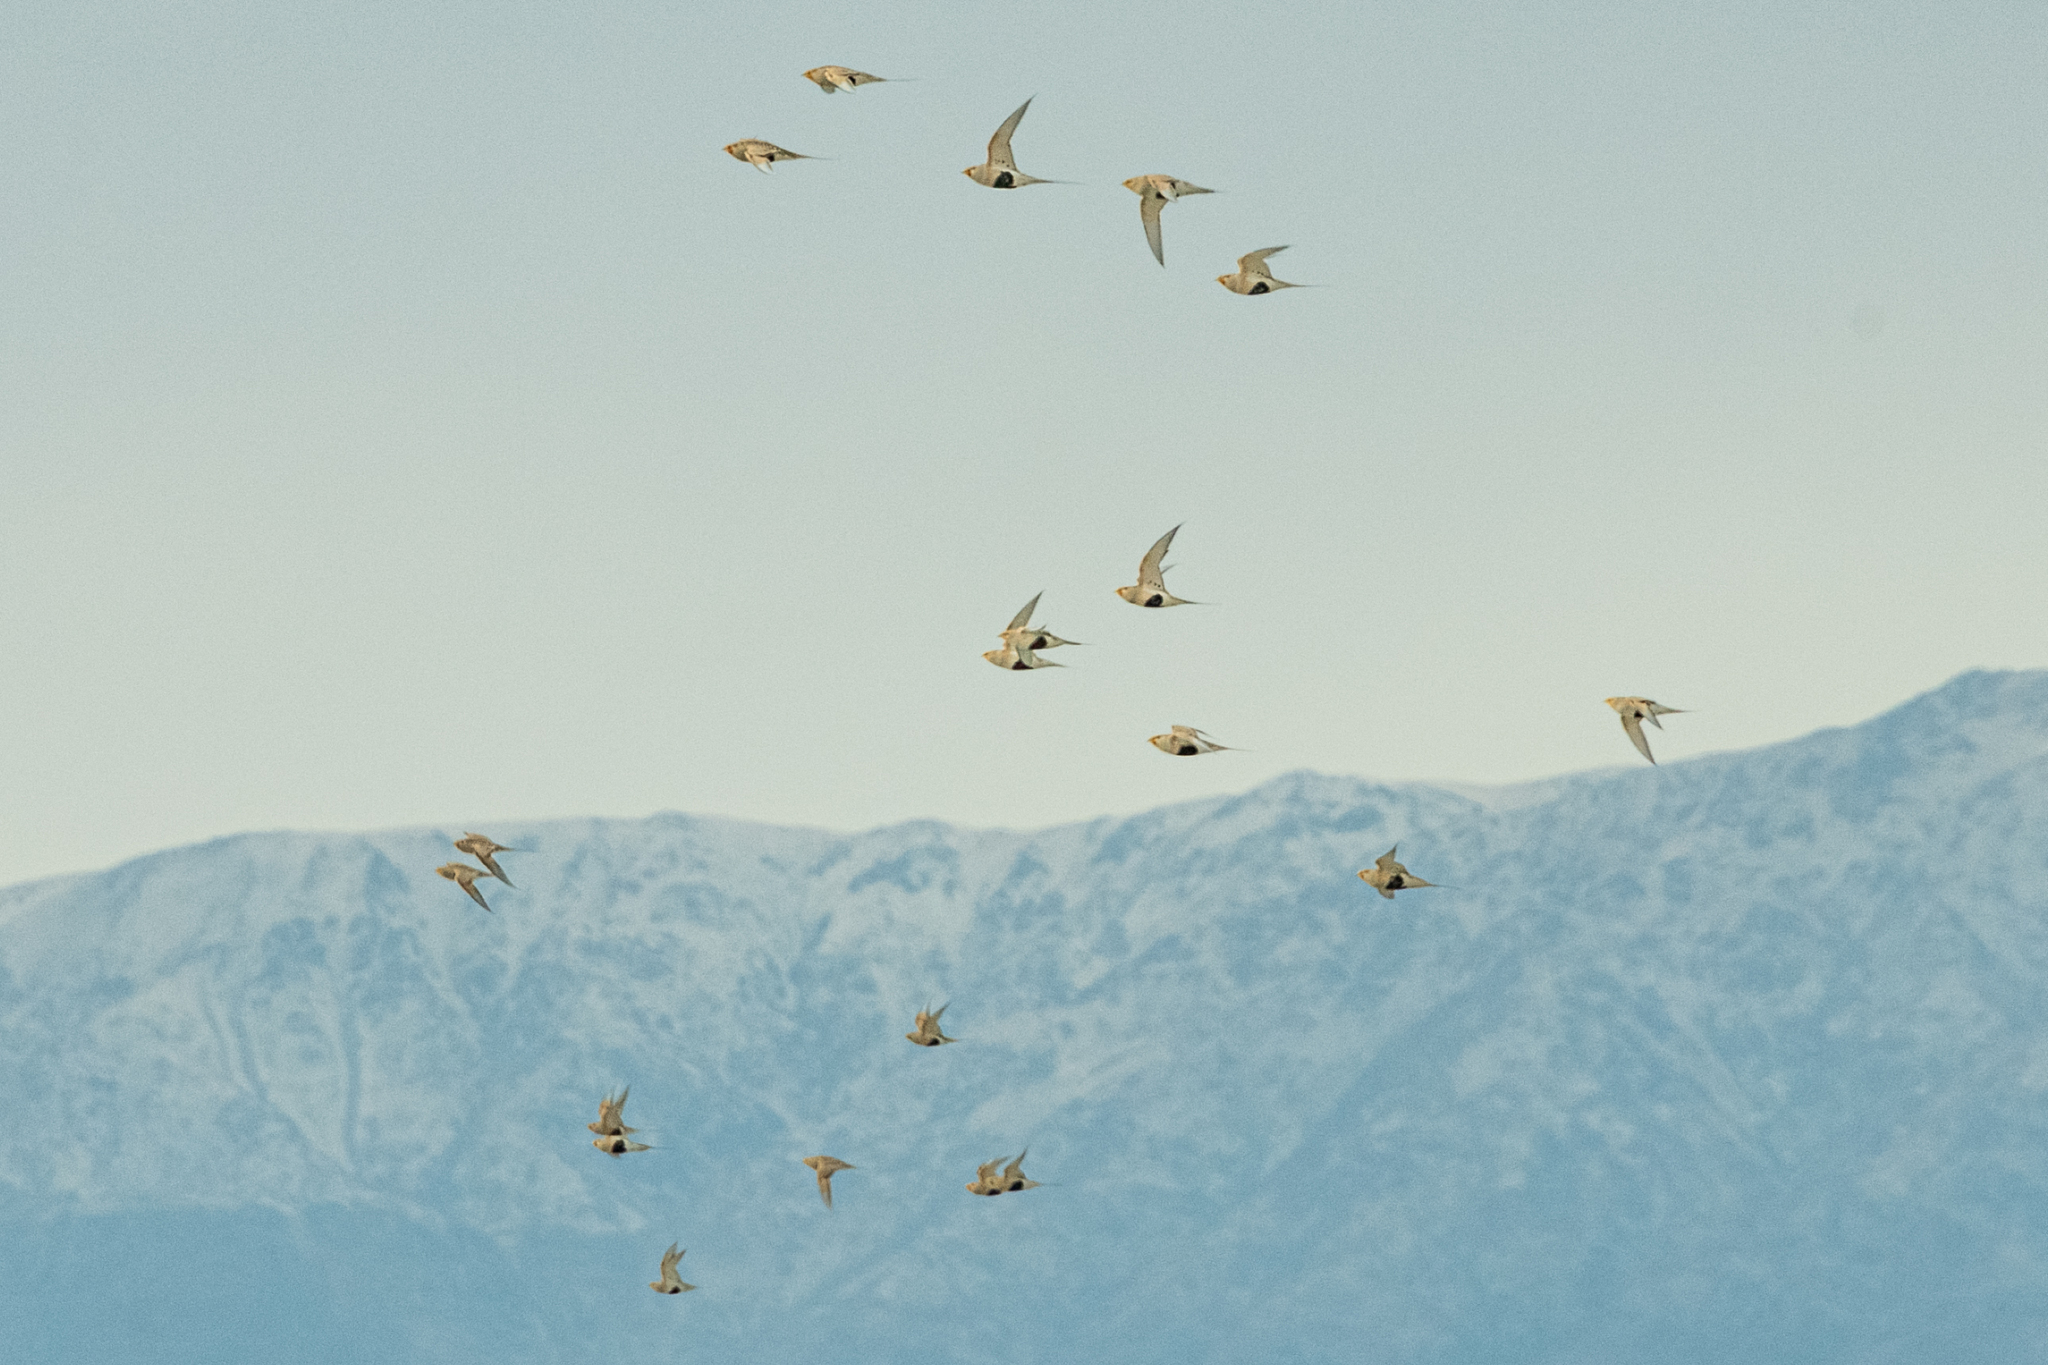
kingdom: Animalia
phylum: Chordata
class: Aves
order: Pteroclidiformes
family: Pteroclididae
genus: Syrrhaptes
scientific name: Syrrhaptes paradoxus
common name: Pallas's sandgrouse
